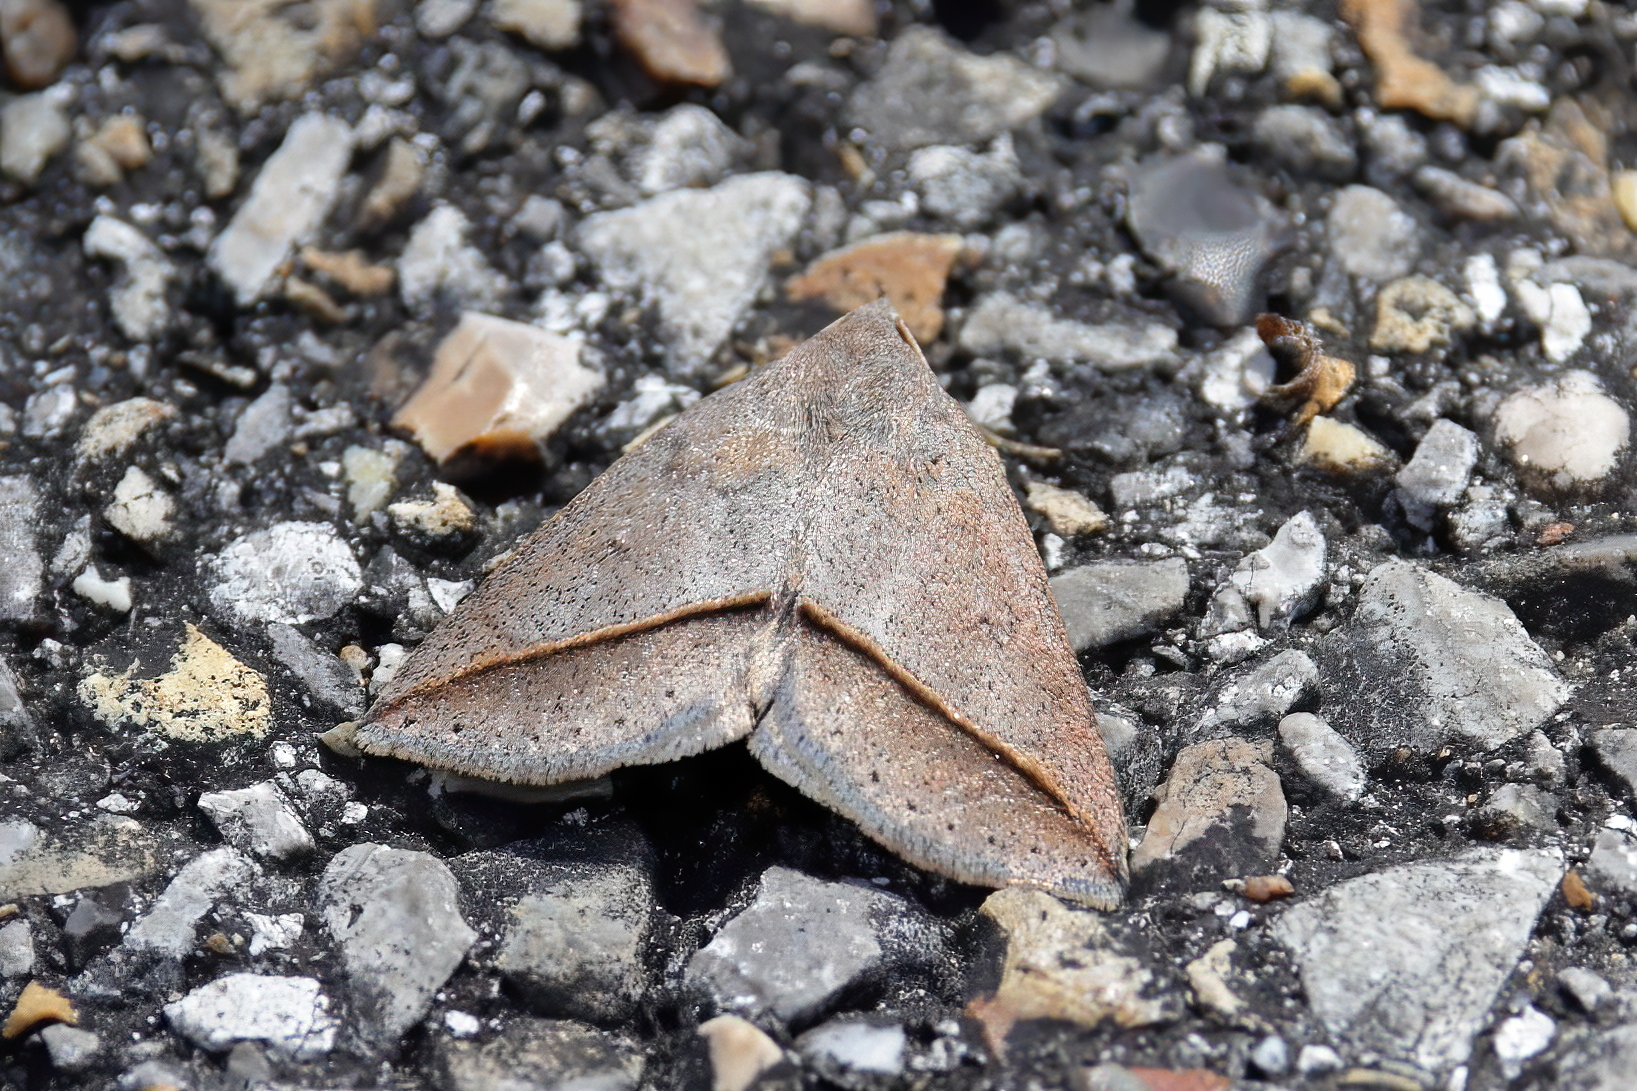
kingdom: Animalia
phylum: Arthropoda
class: Insecta
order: Lepidoptera
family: Erebidae
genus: Argyrostrotis
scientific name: Argyrostrotis flavistriaria
